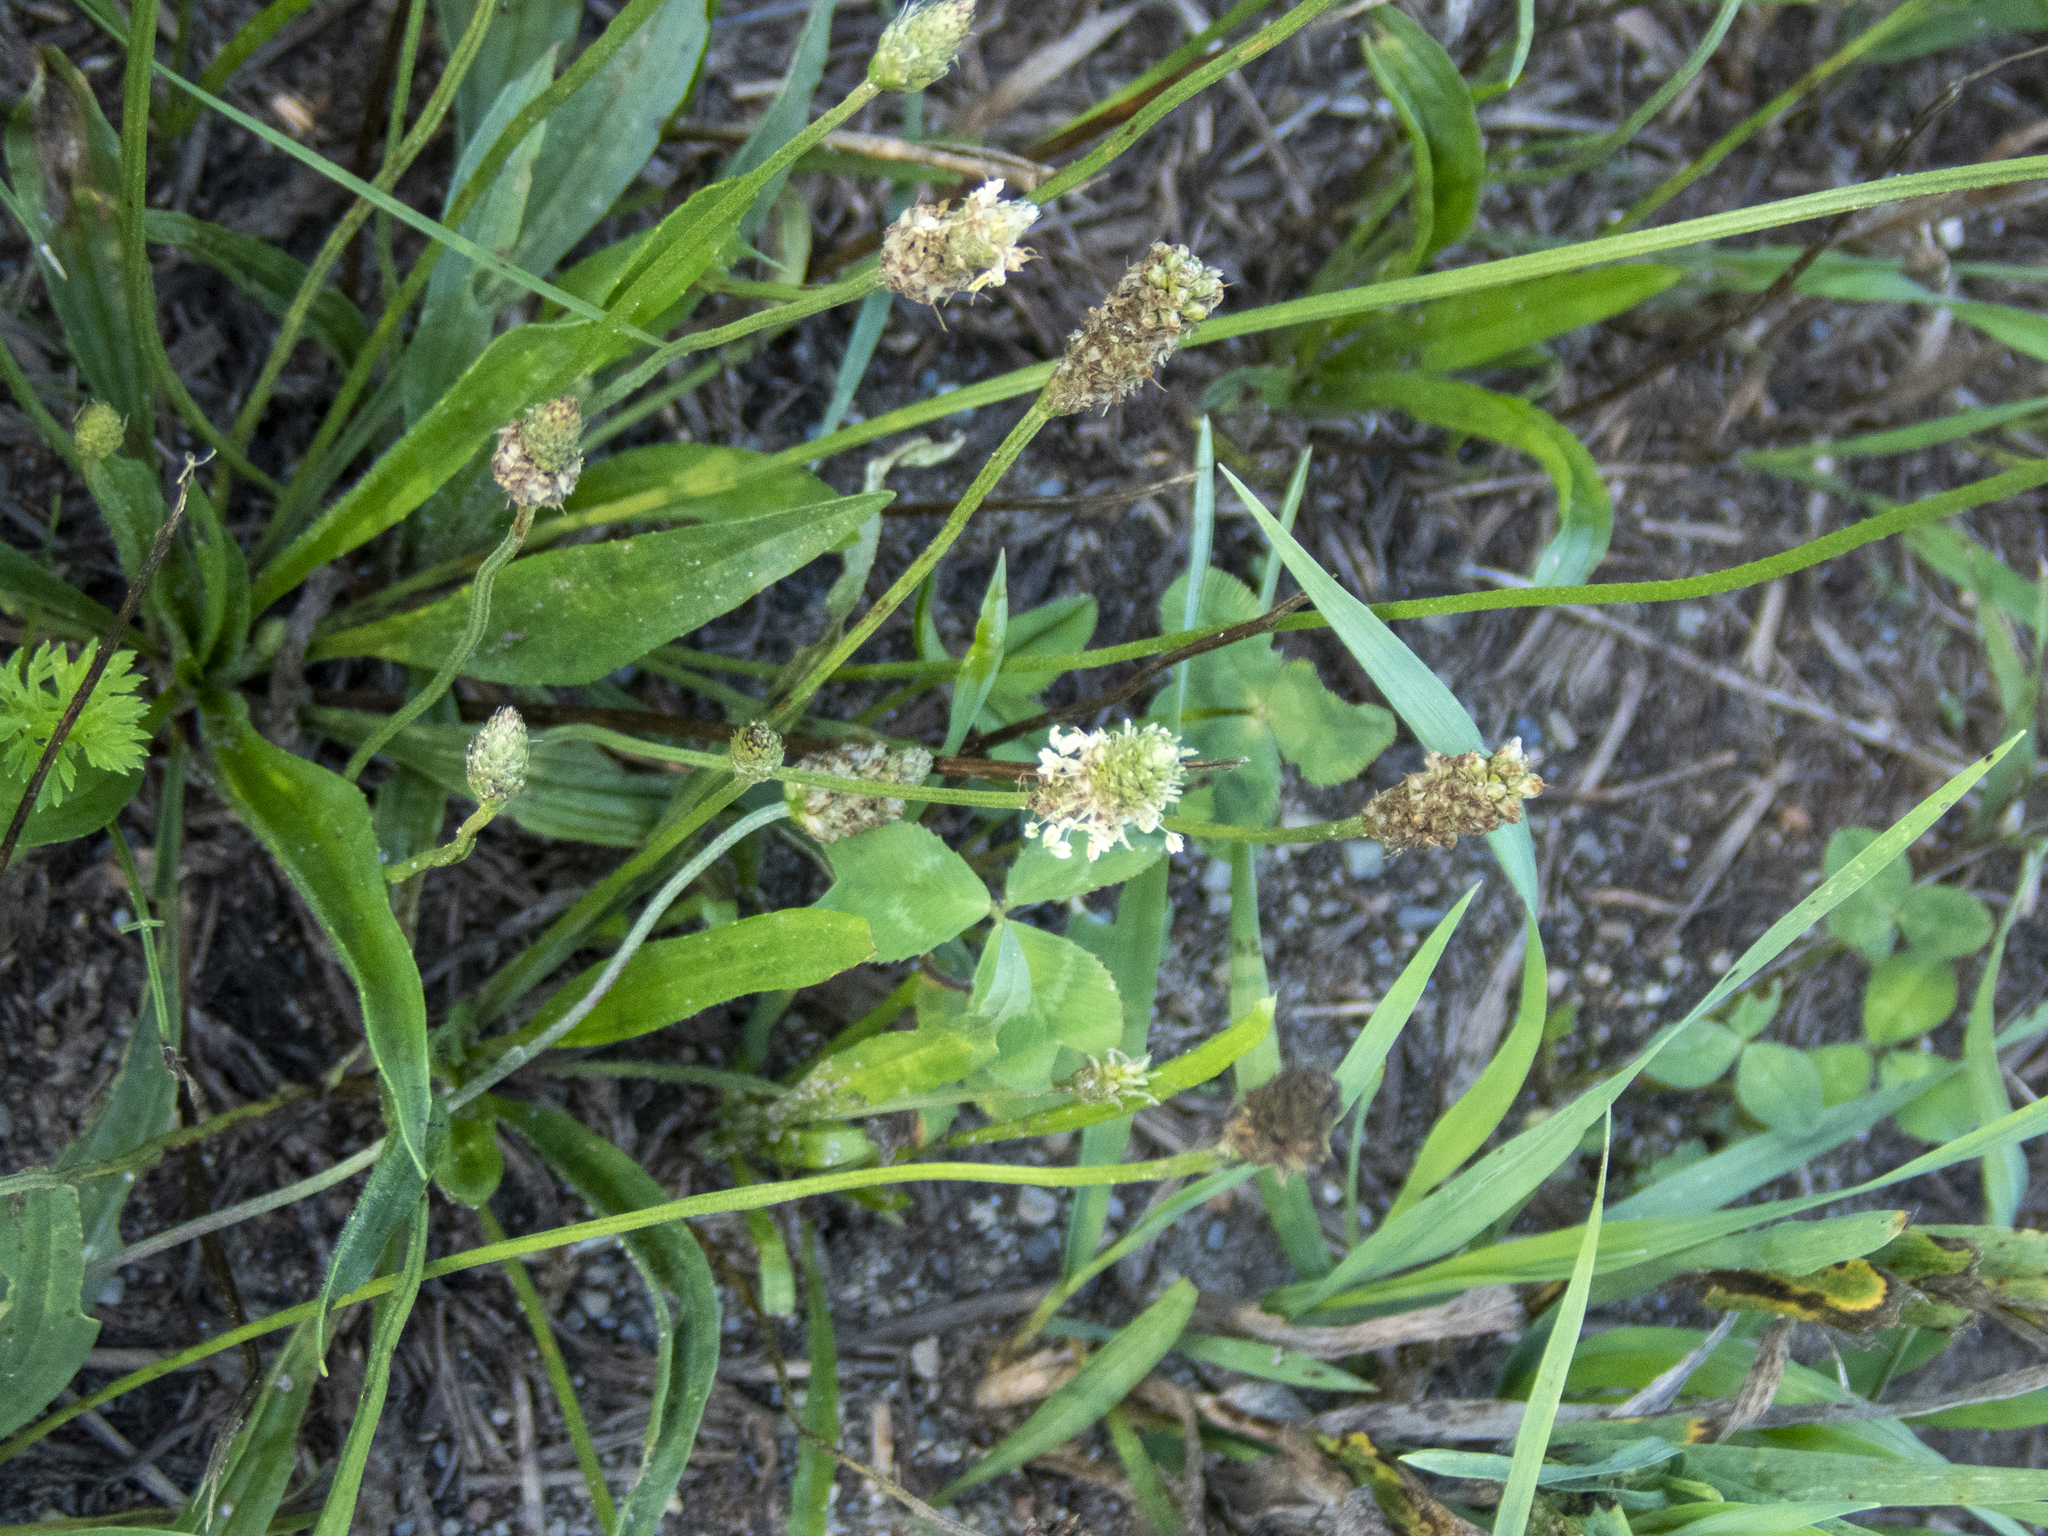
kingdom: Plantae
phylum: Tracheophyta
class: Magnoliopsida
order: Lamiales
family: Plantaginaceae
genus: Plantago
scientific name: Plantago lanceolata
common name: Ribwort plantain
